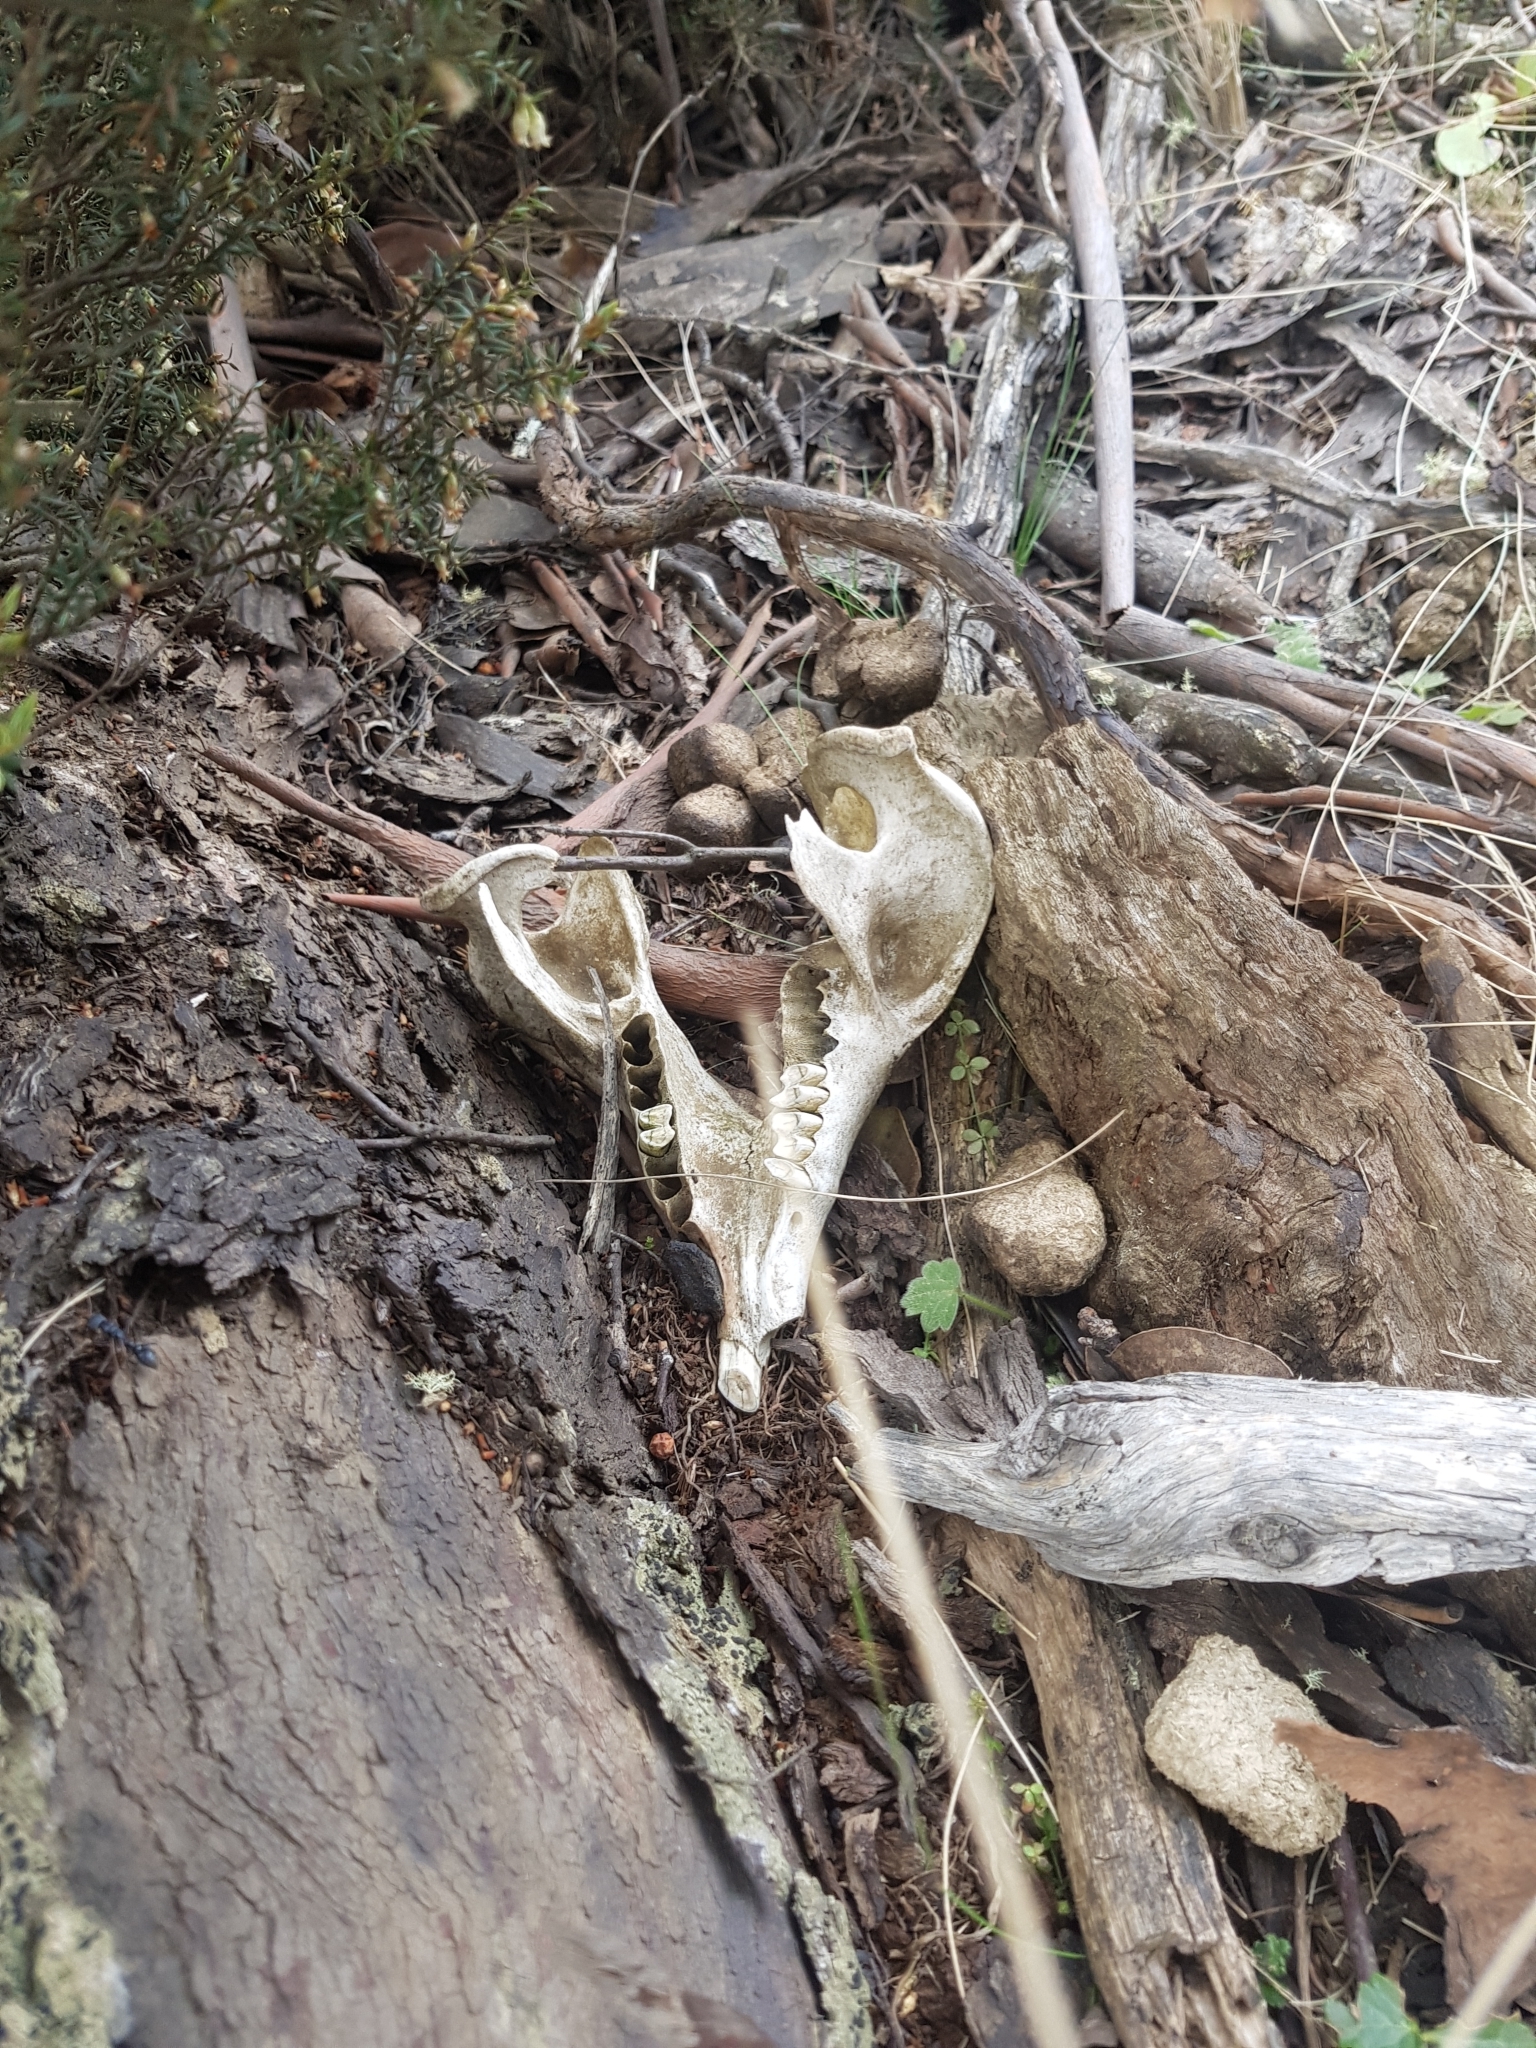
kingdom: Animalia
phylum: Chordata
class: Mammalia
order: Diprotodontia
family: Vombatidae
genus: Vombatus
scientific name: Vombatus ursinus
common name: Common wombat
